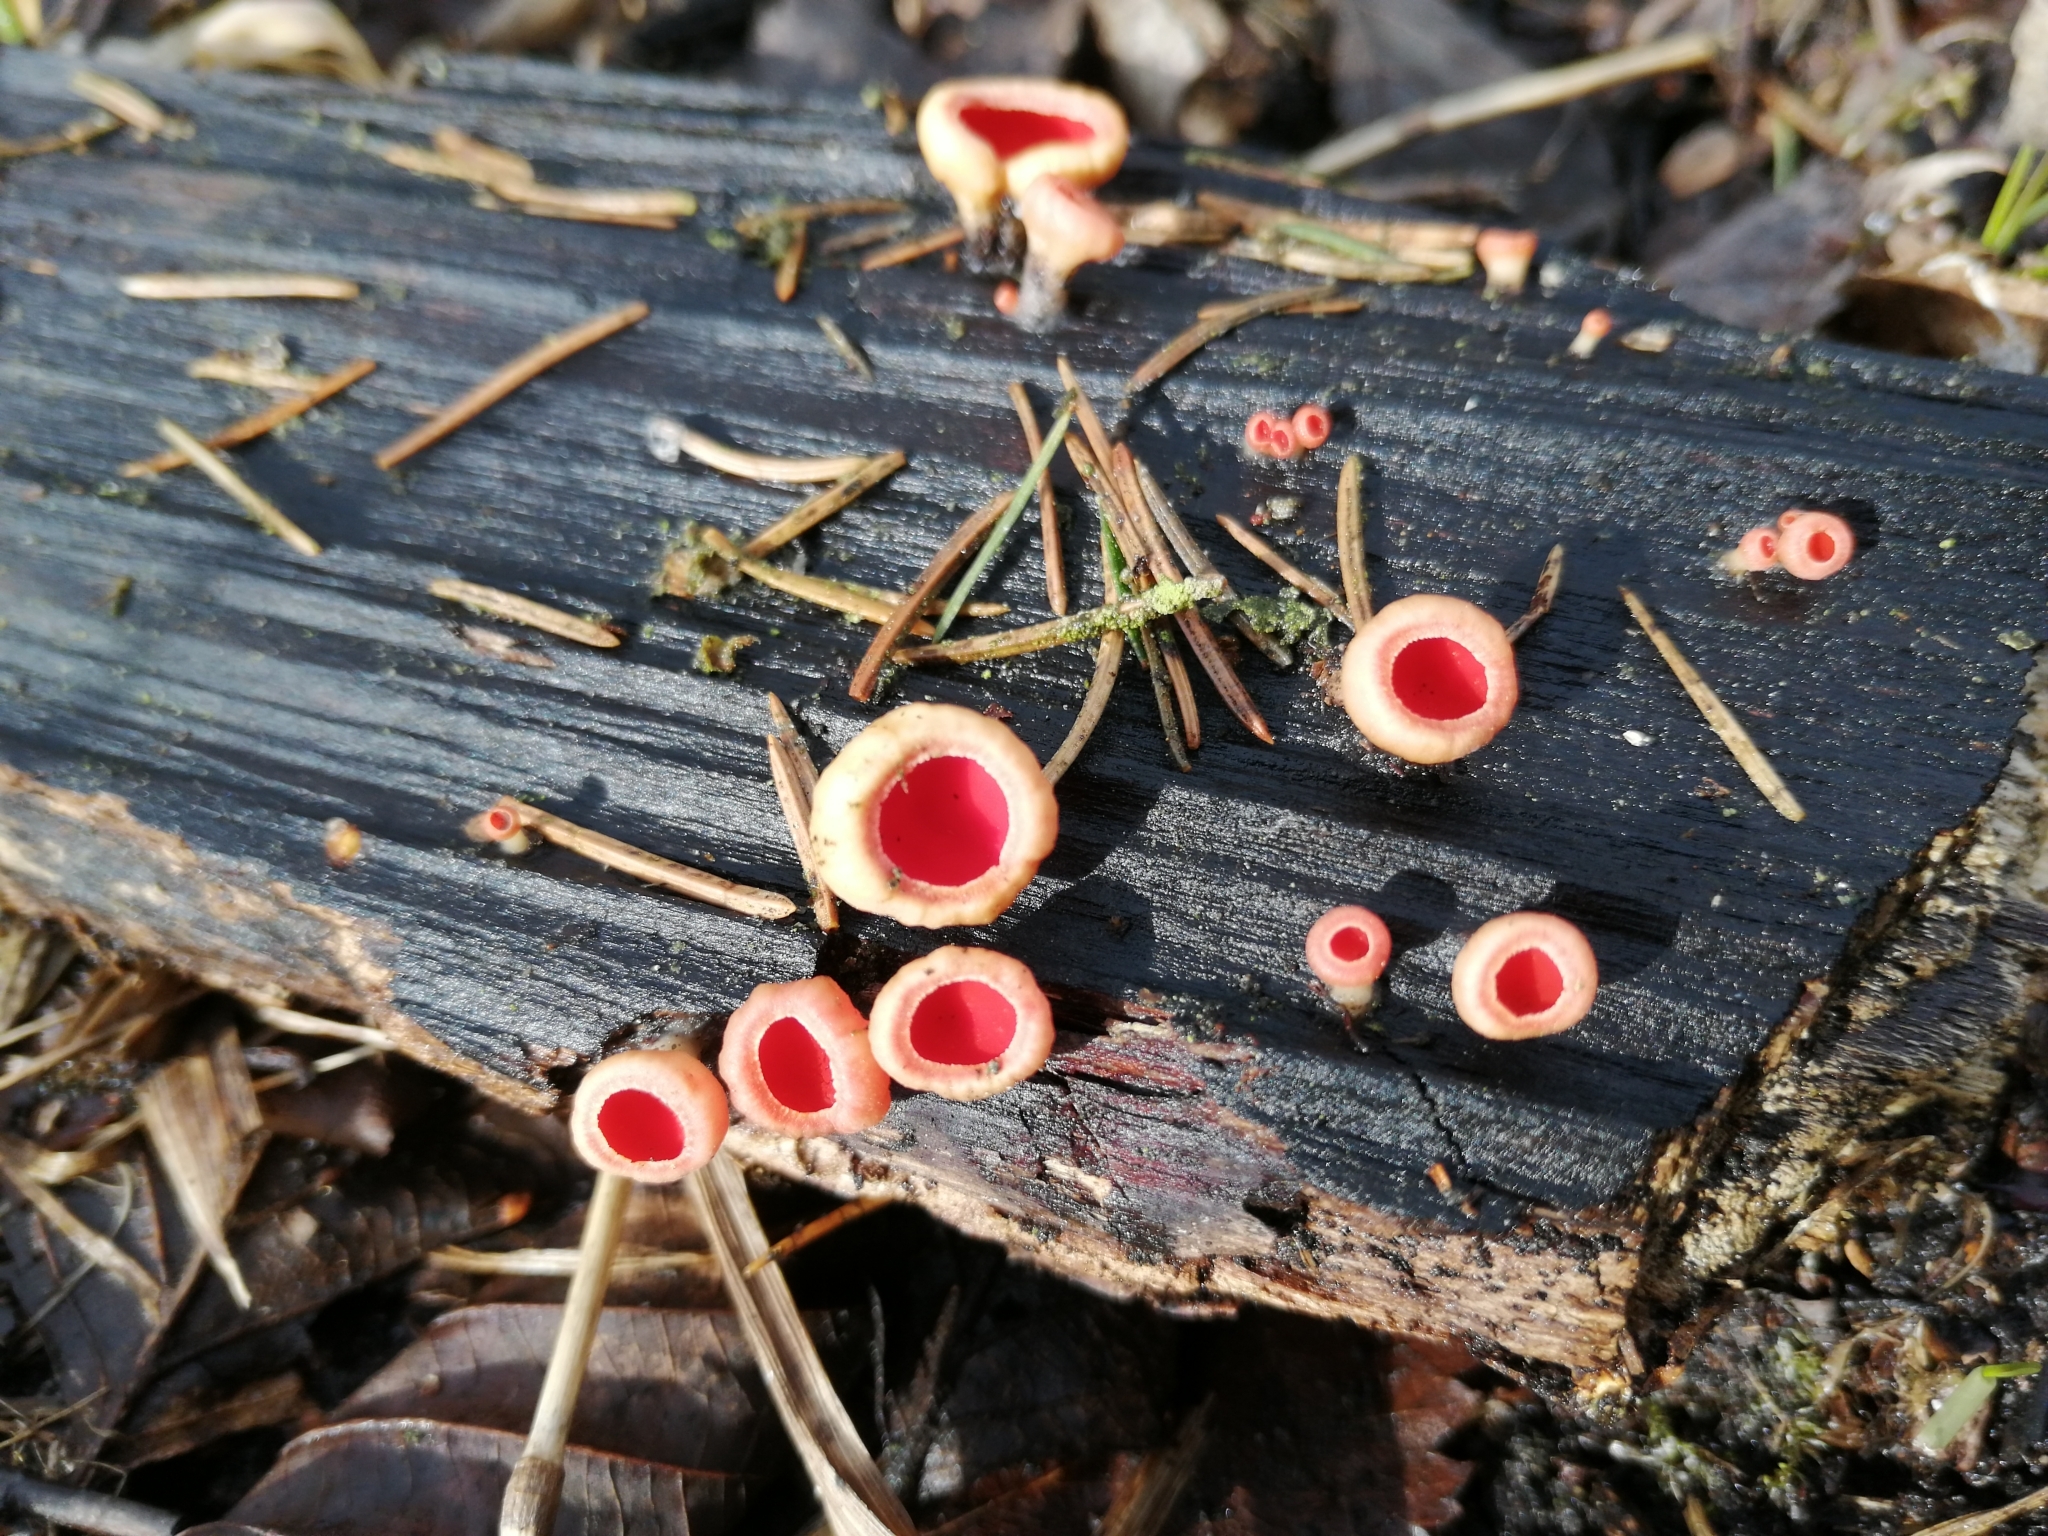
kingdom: Fungi
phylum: Ascomycota
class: Pezizomycetes
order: Pezizales
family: Sarcoscyphaceae
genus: Sarcoscypha
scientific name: Sarcoscypha austriaca
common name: Scarlet elfcup
